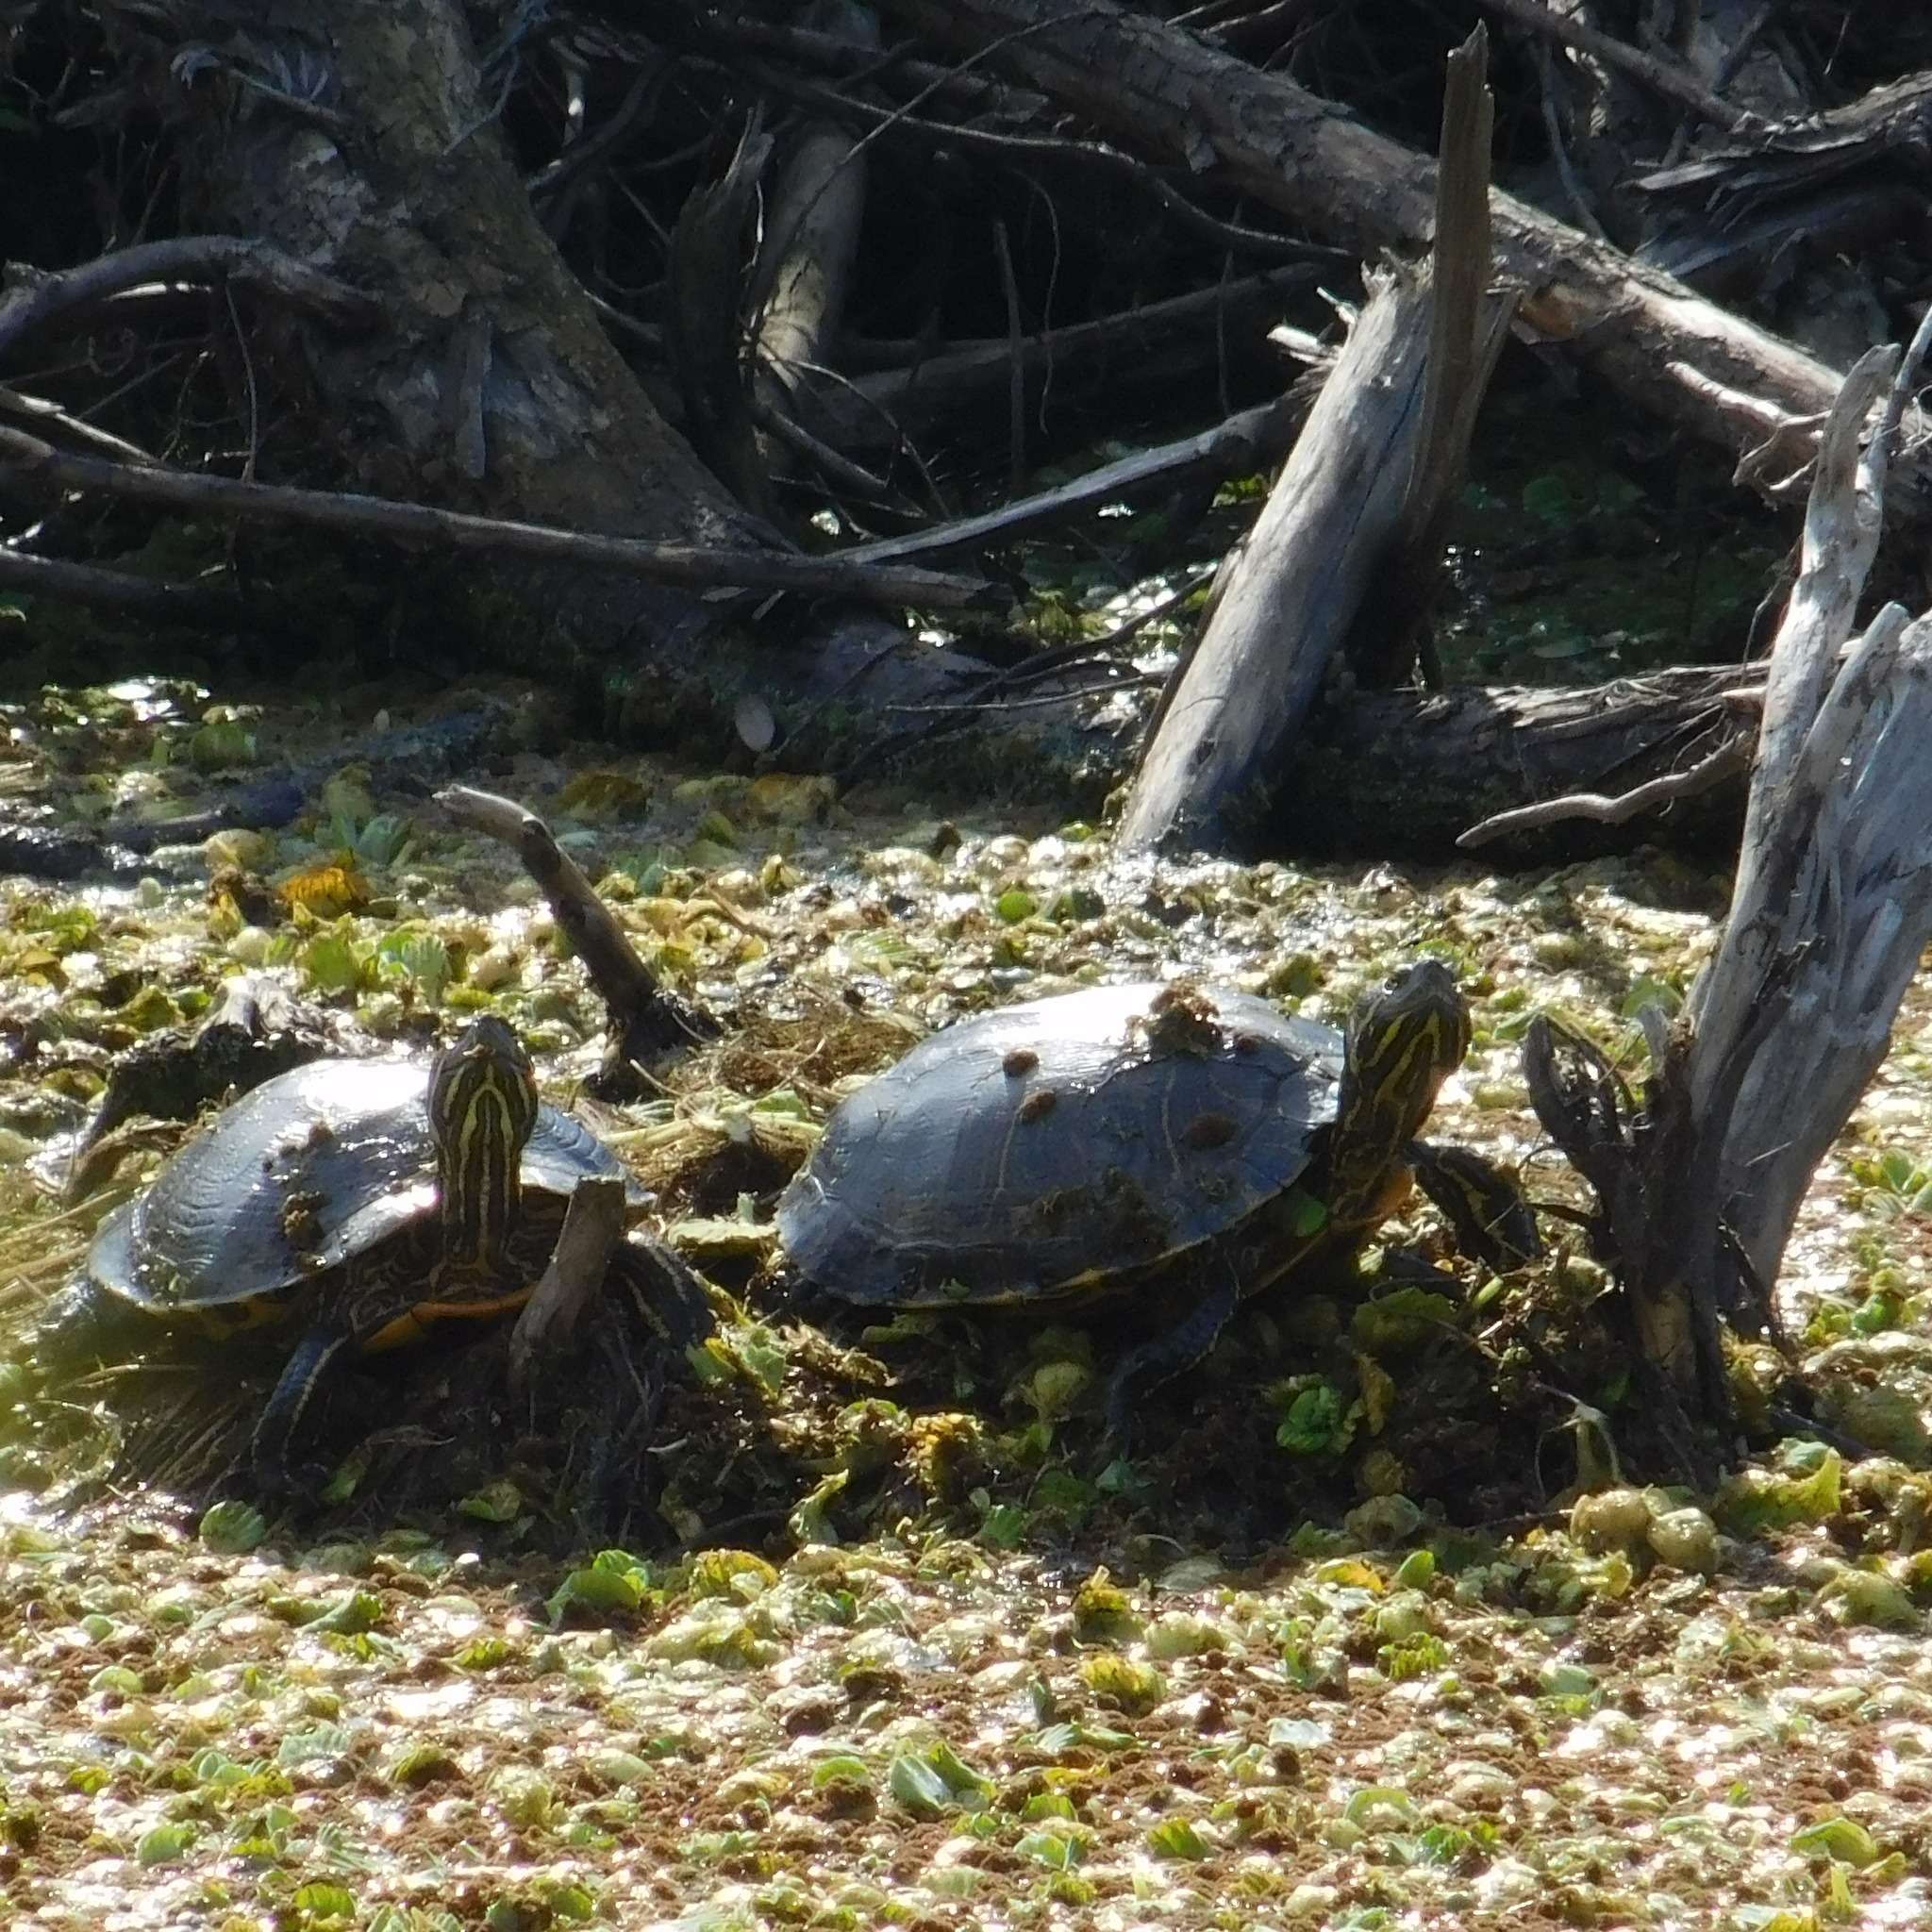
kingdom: Animalia
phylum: Chordata
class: Testudines
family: Emydidae
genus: Trachemys
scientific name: Trachemys dorbigni
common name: Black-bellied slider
